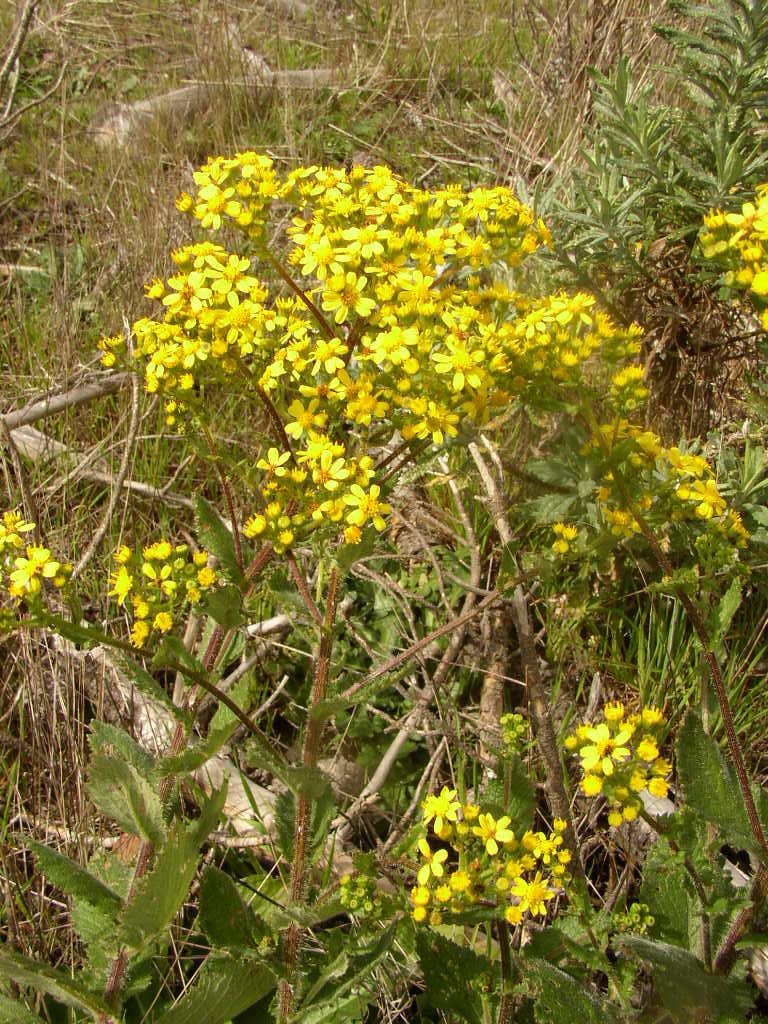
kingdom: Plantae
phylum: Tracheophyta
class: Magnoliopsida
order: Asterales
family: Asteraceae
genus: Senecio
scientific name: Senecio subcanescens
